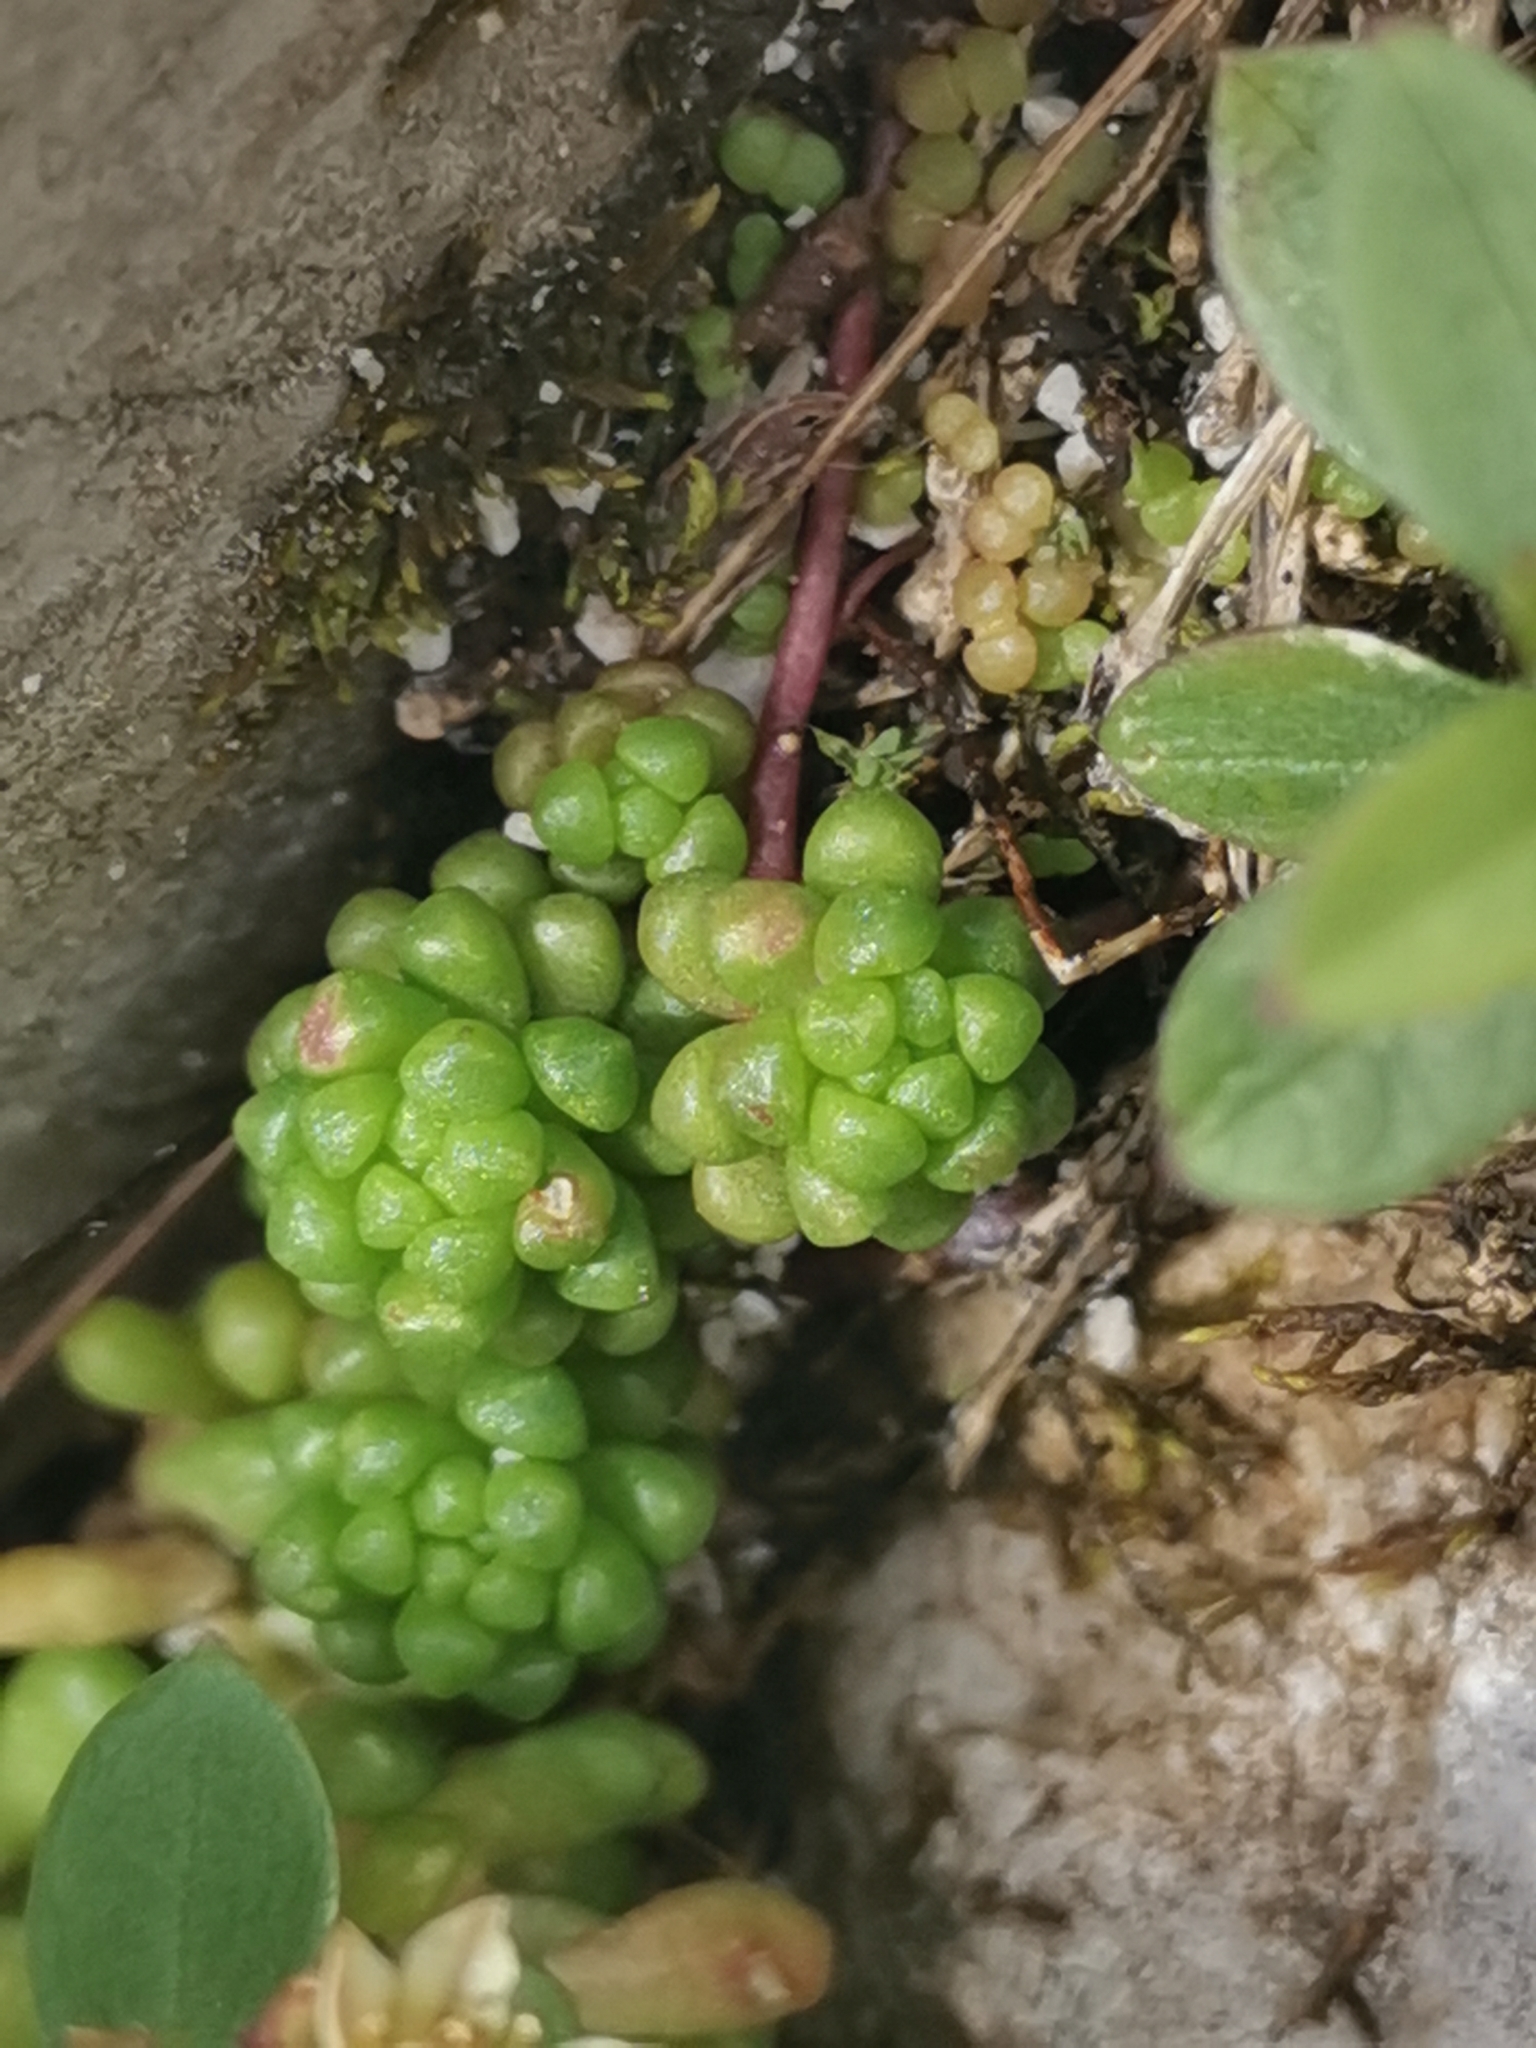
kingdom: Plantae
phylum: Tracheophyta
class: Magnoliopsida
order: Saxifragales
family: Crassulaceae
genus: Sedum
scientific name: Sedum atratum
